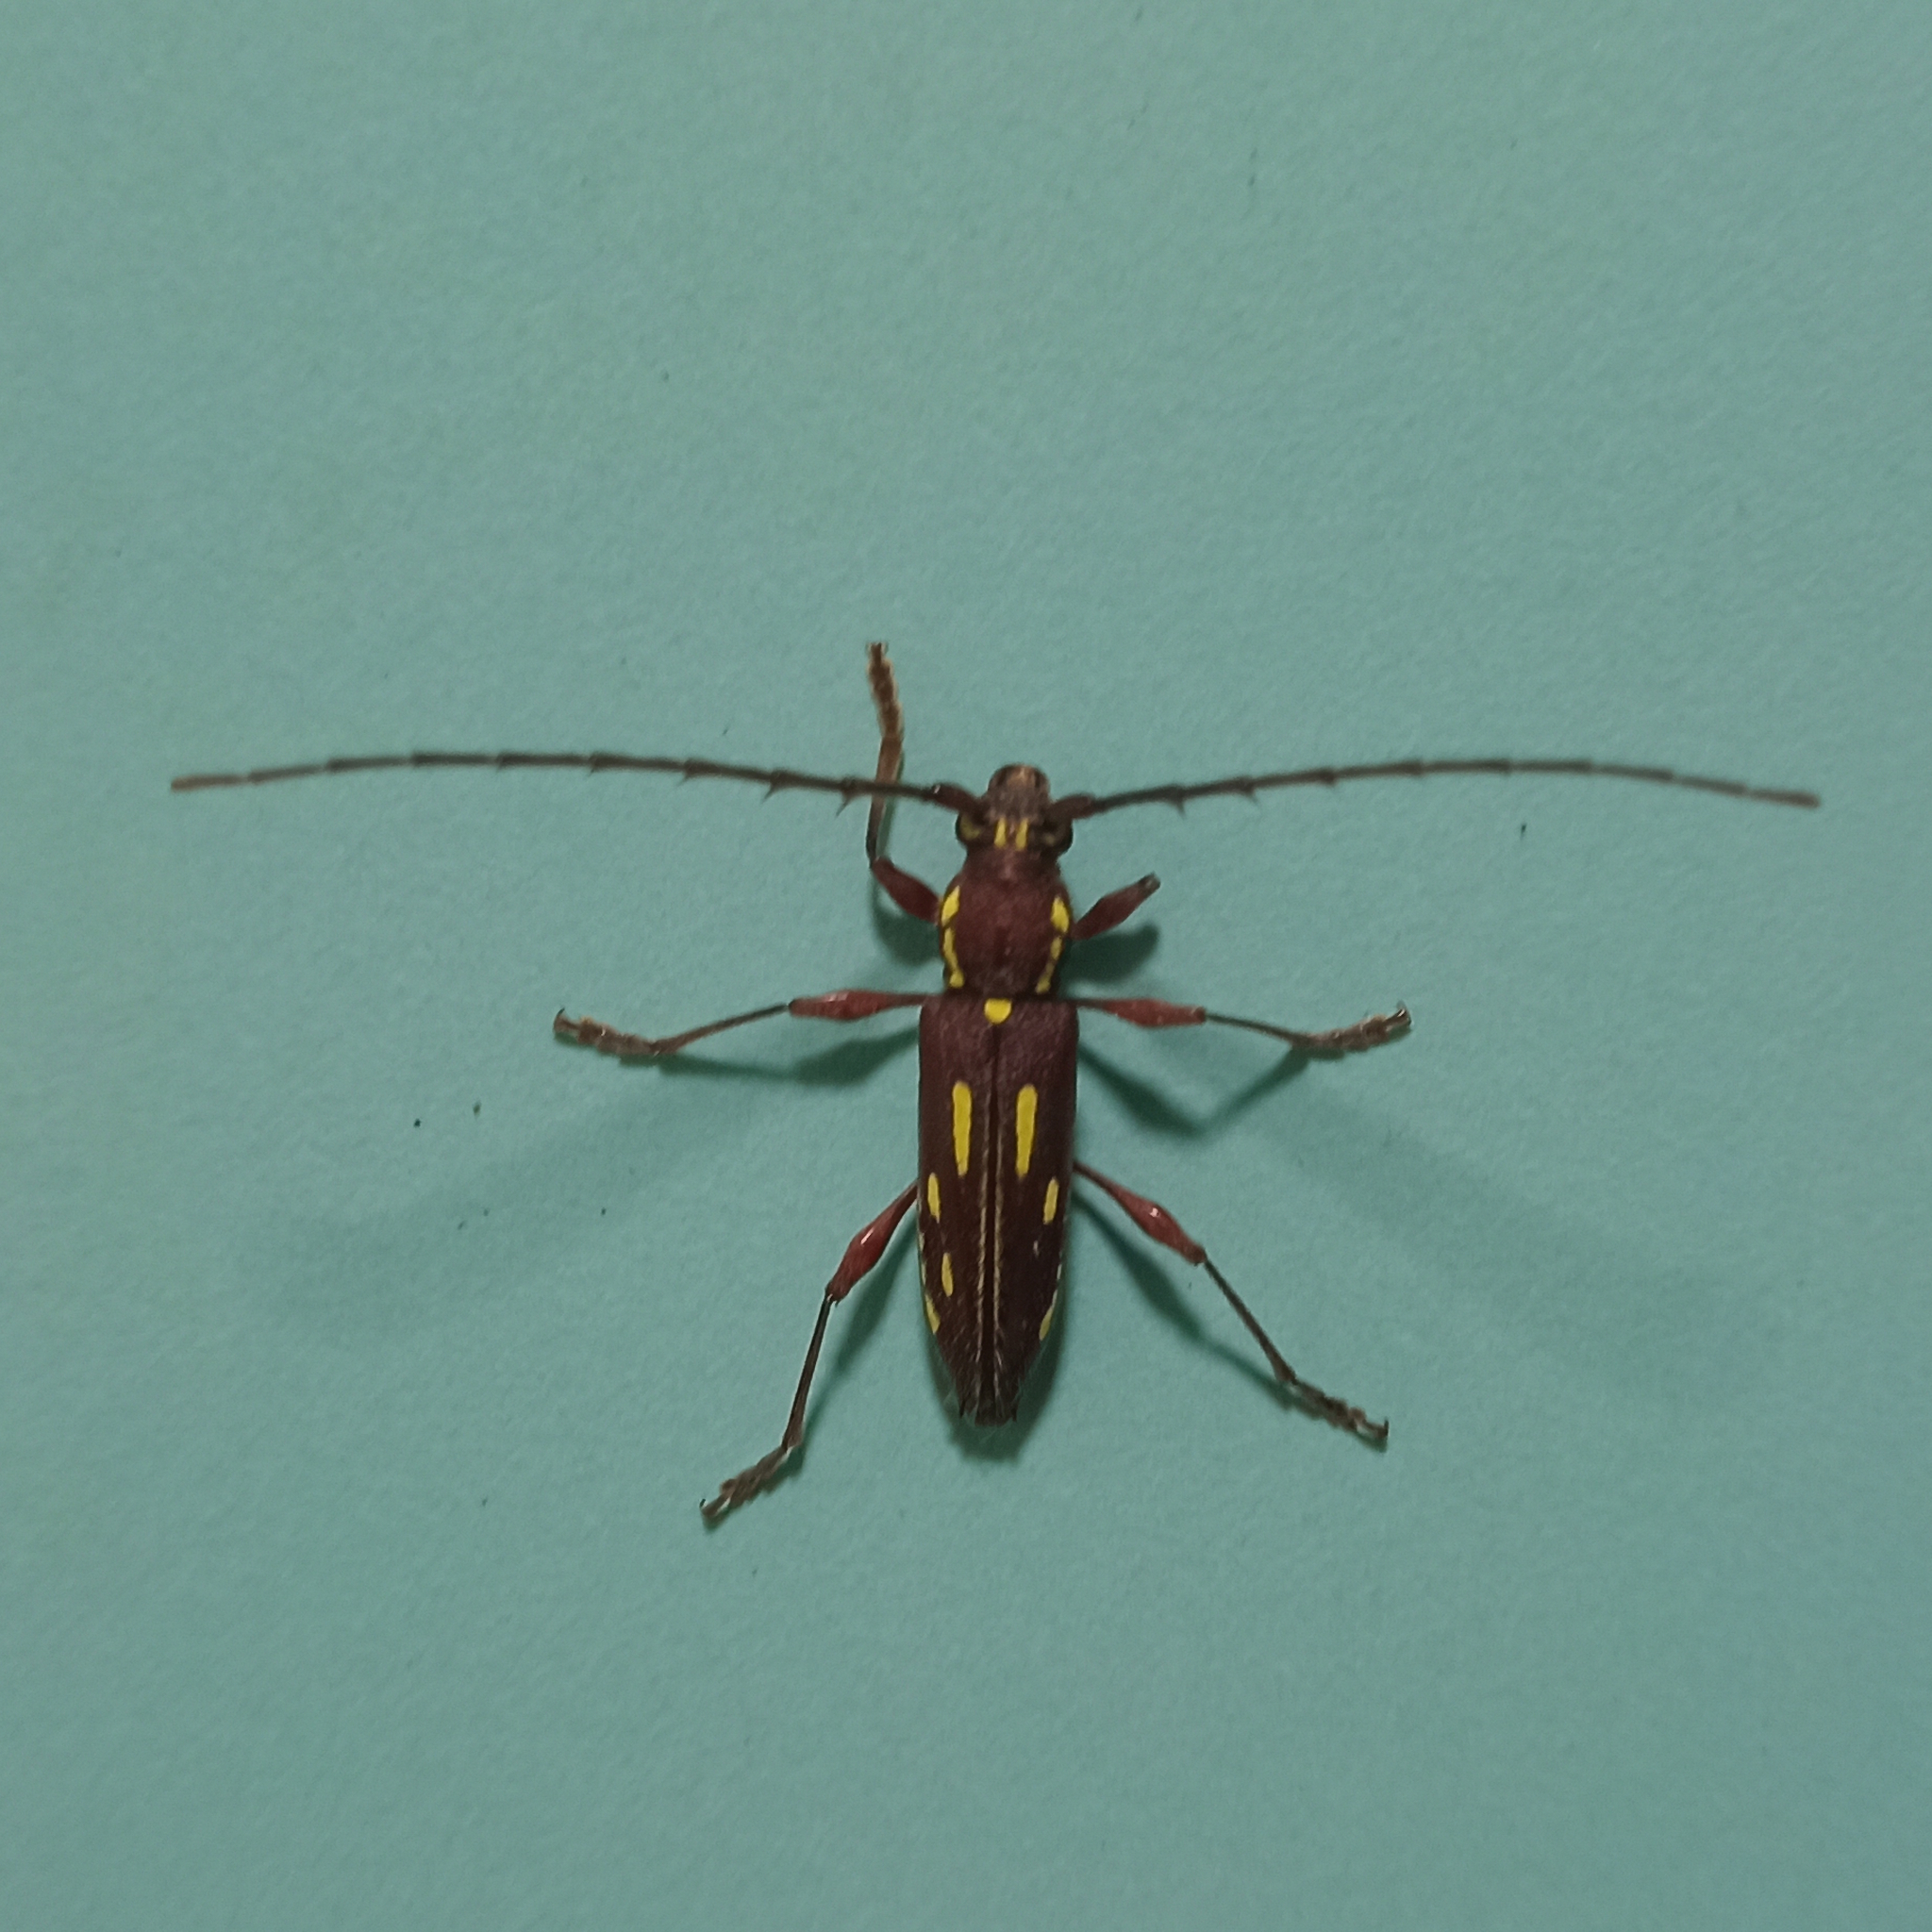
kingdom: Animalia
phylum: Arthropoda
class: Insecta
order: Coleoptera
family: Cerambycidae
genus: Ambonus
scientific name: Ambonus distinctus
